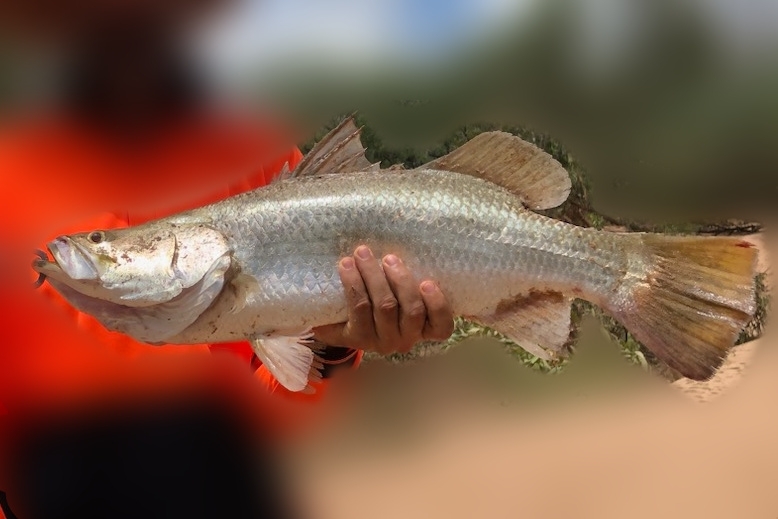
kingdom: Animalia
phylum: Chordata
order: Perciformes
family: Latidae
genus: Lates
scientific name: Lates calcarifer
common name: Barramundi
